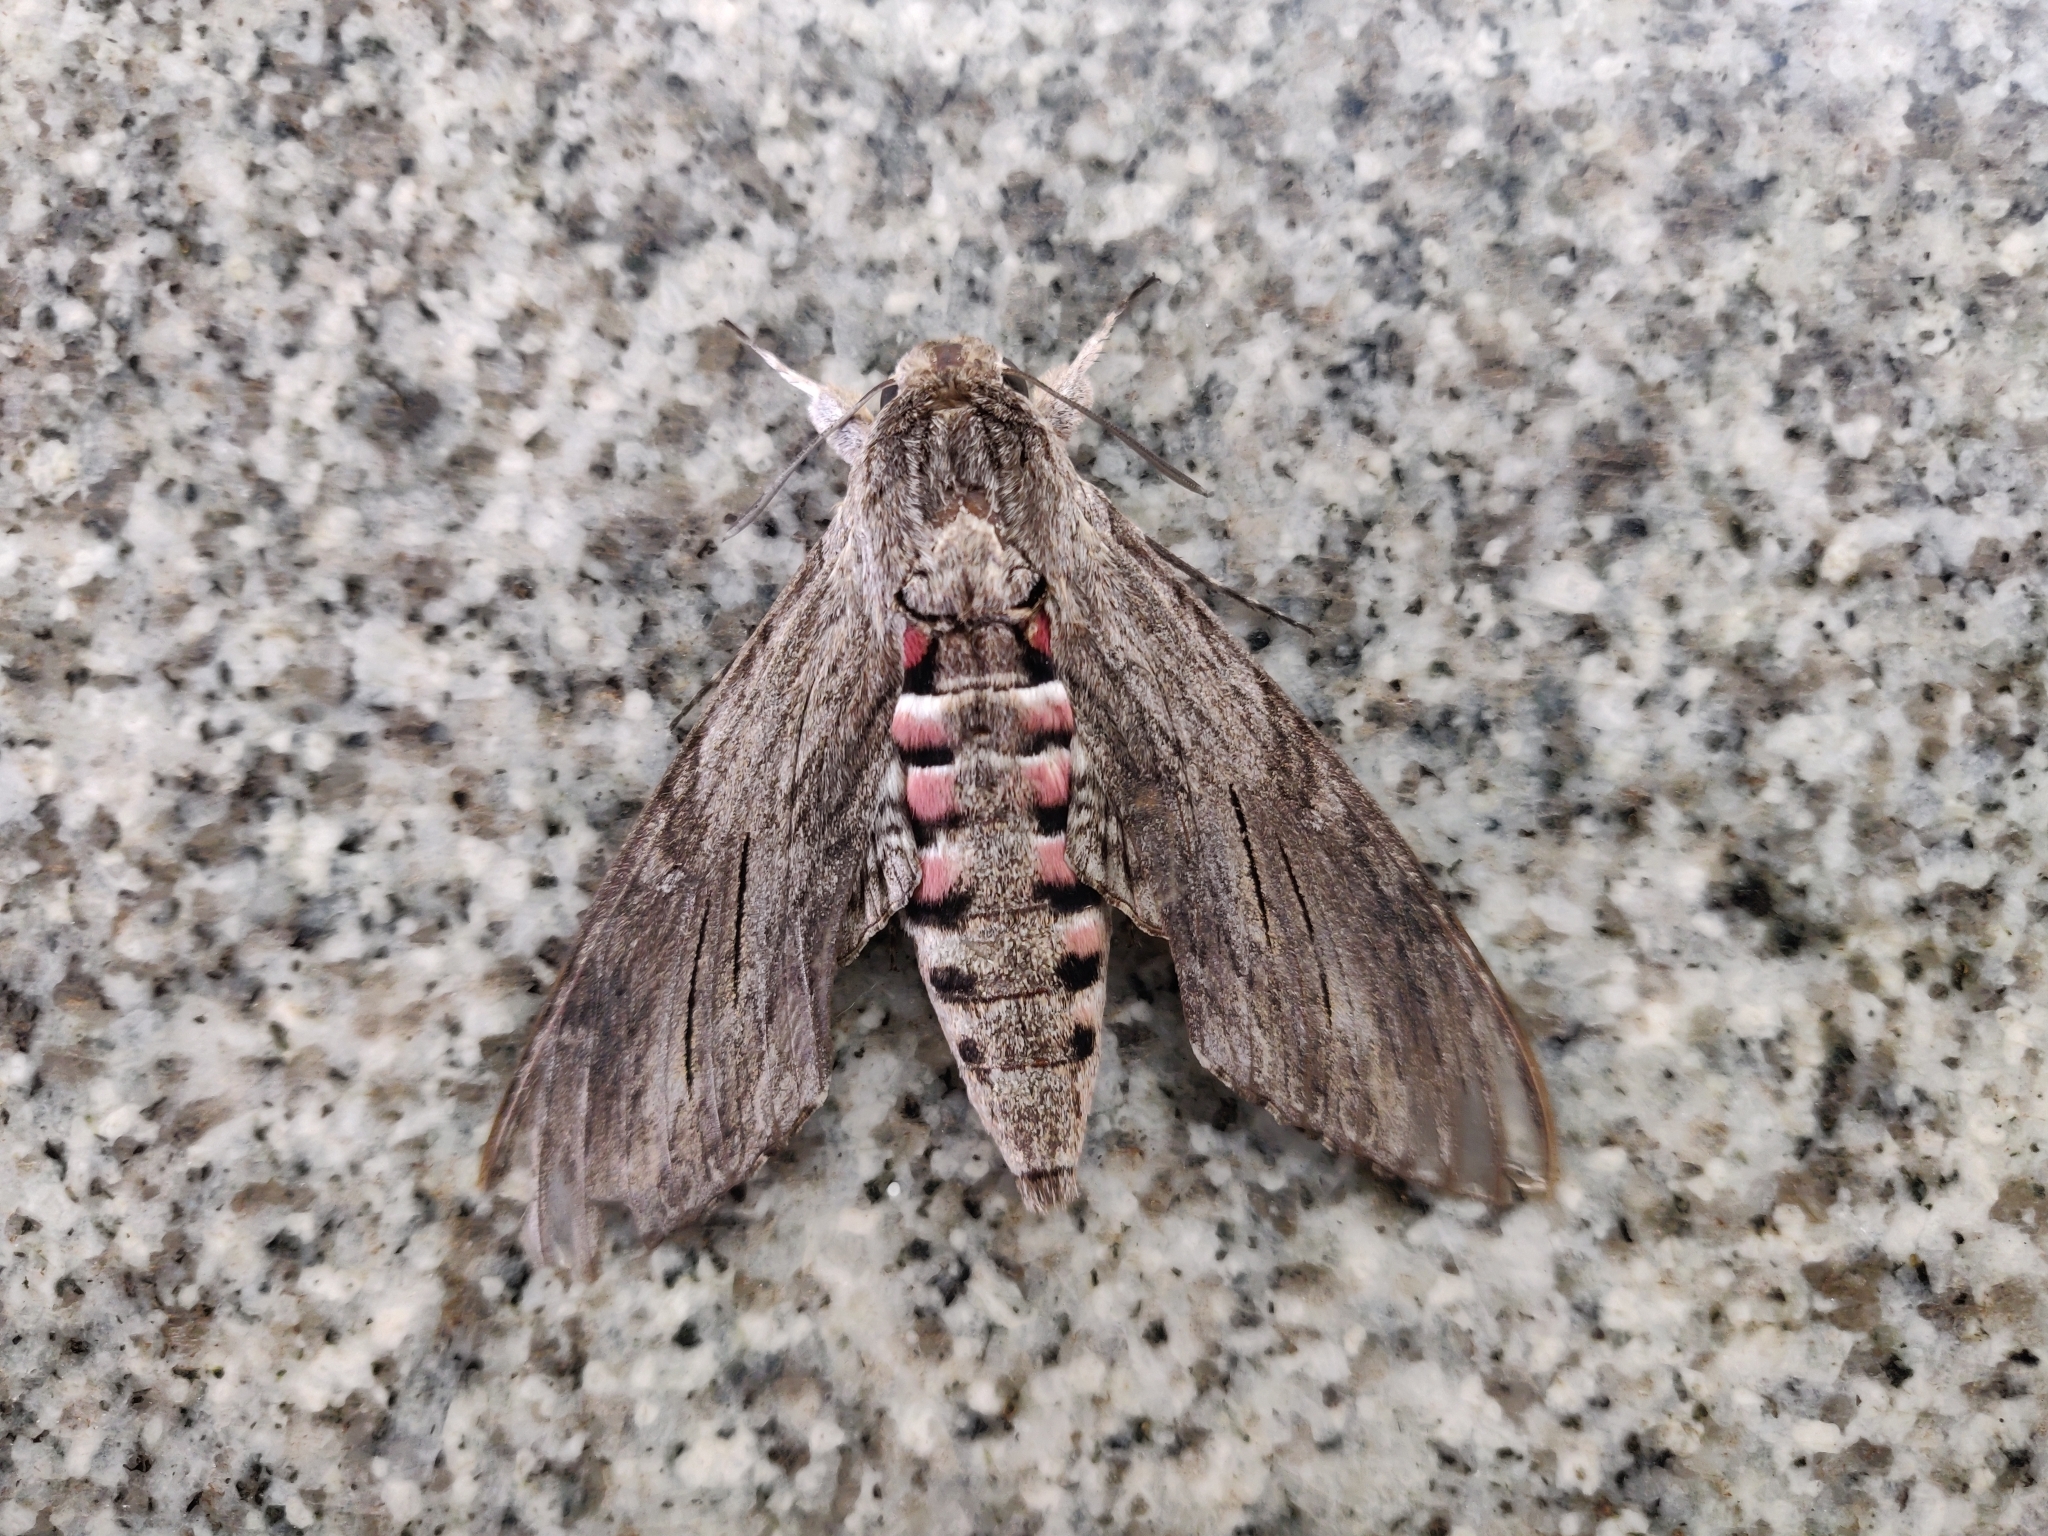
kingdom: Animalia
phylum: Arthropoda
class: Insecta
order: Lepidoptera
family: Sphingidae
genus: Agrius
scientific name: Agrius convolvuli
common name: Convolvulus hawkmoth
